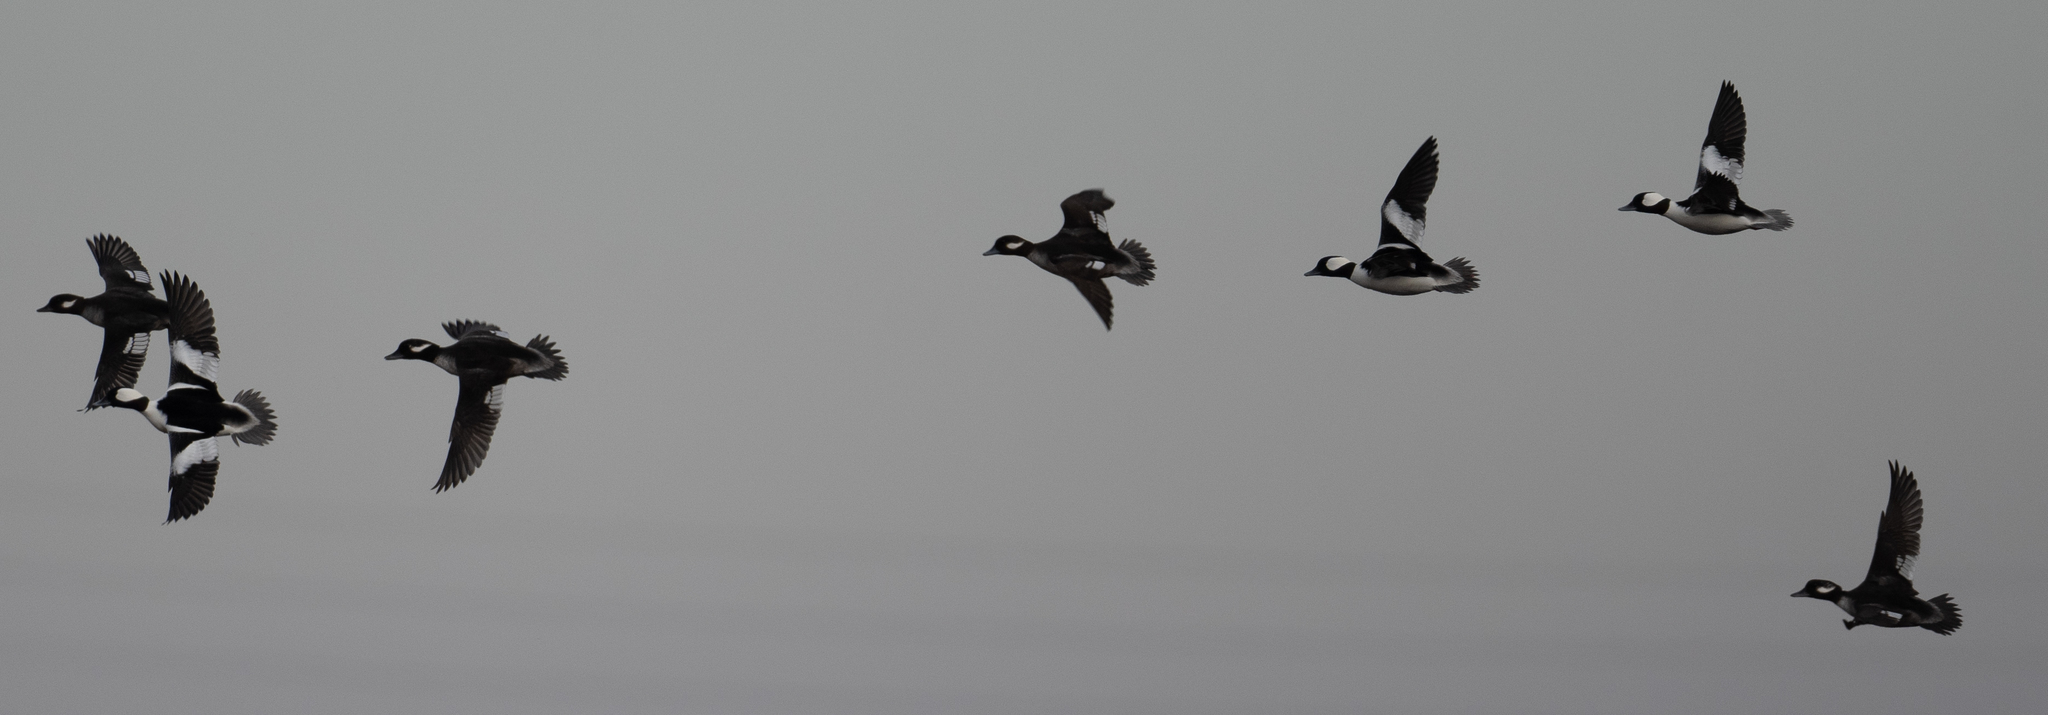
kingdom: Animalia
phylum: Chordata
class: Aves
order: Anseriformes
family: Anatidae
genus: Bucephala
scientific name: Bucephala albeola
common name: Bufflehead
